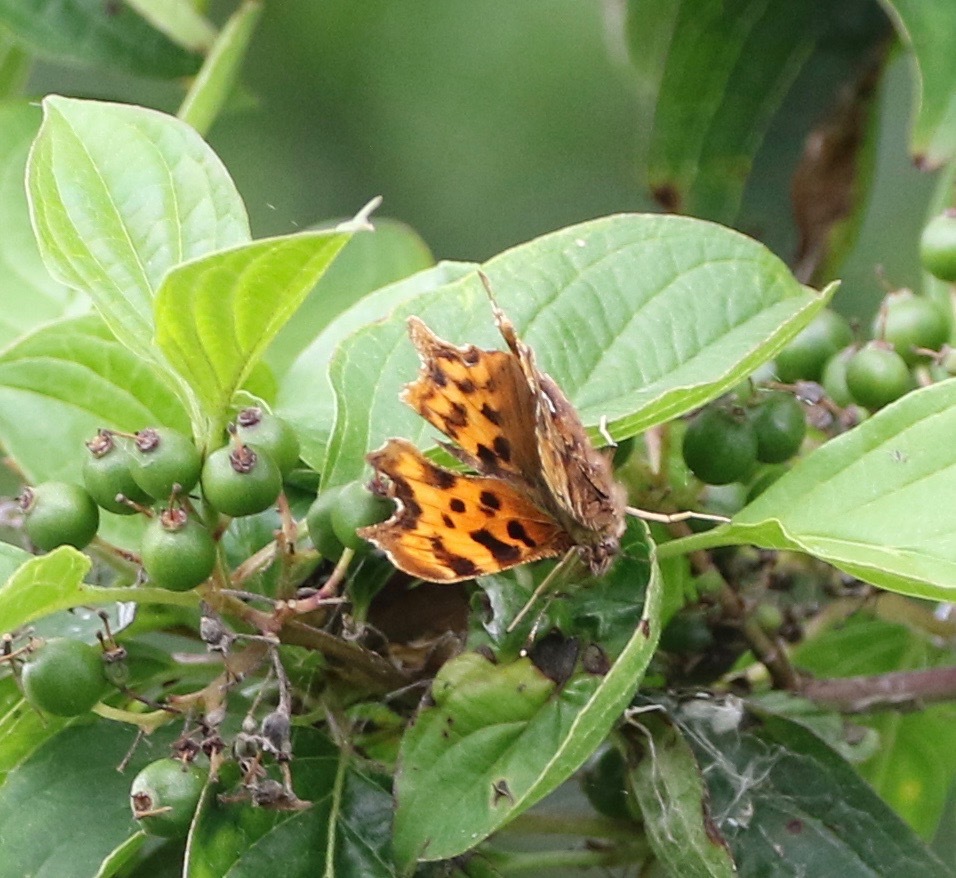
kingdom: Animalia
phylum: Arthropoda
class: Insecta
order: Lepidoptera
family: Nymphalidae
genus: Polygonia
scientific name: Polygonia c-album
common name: Comma
